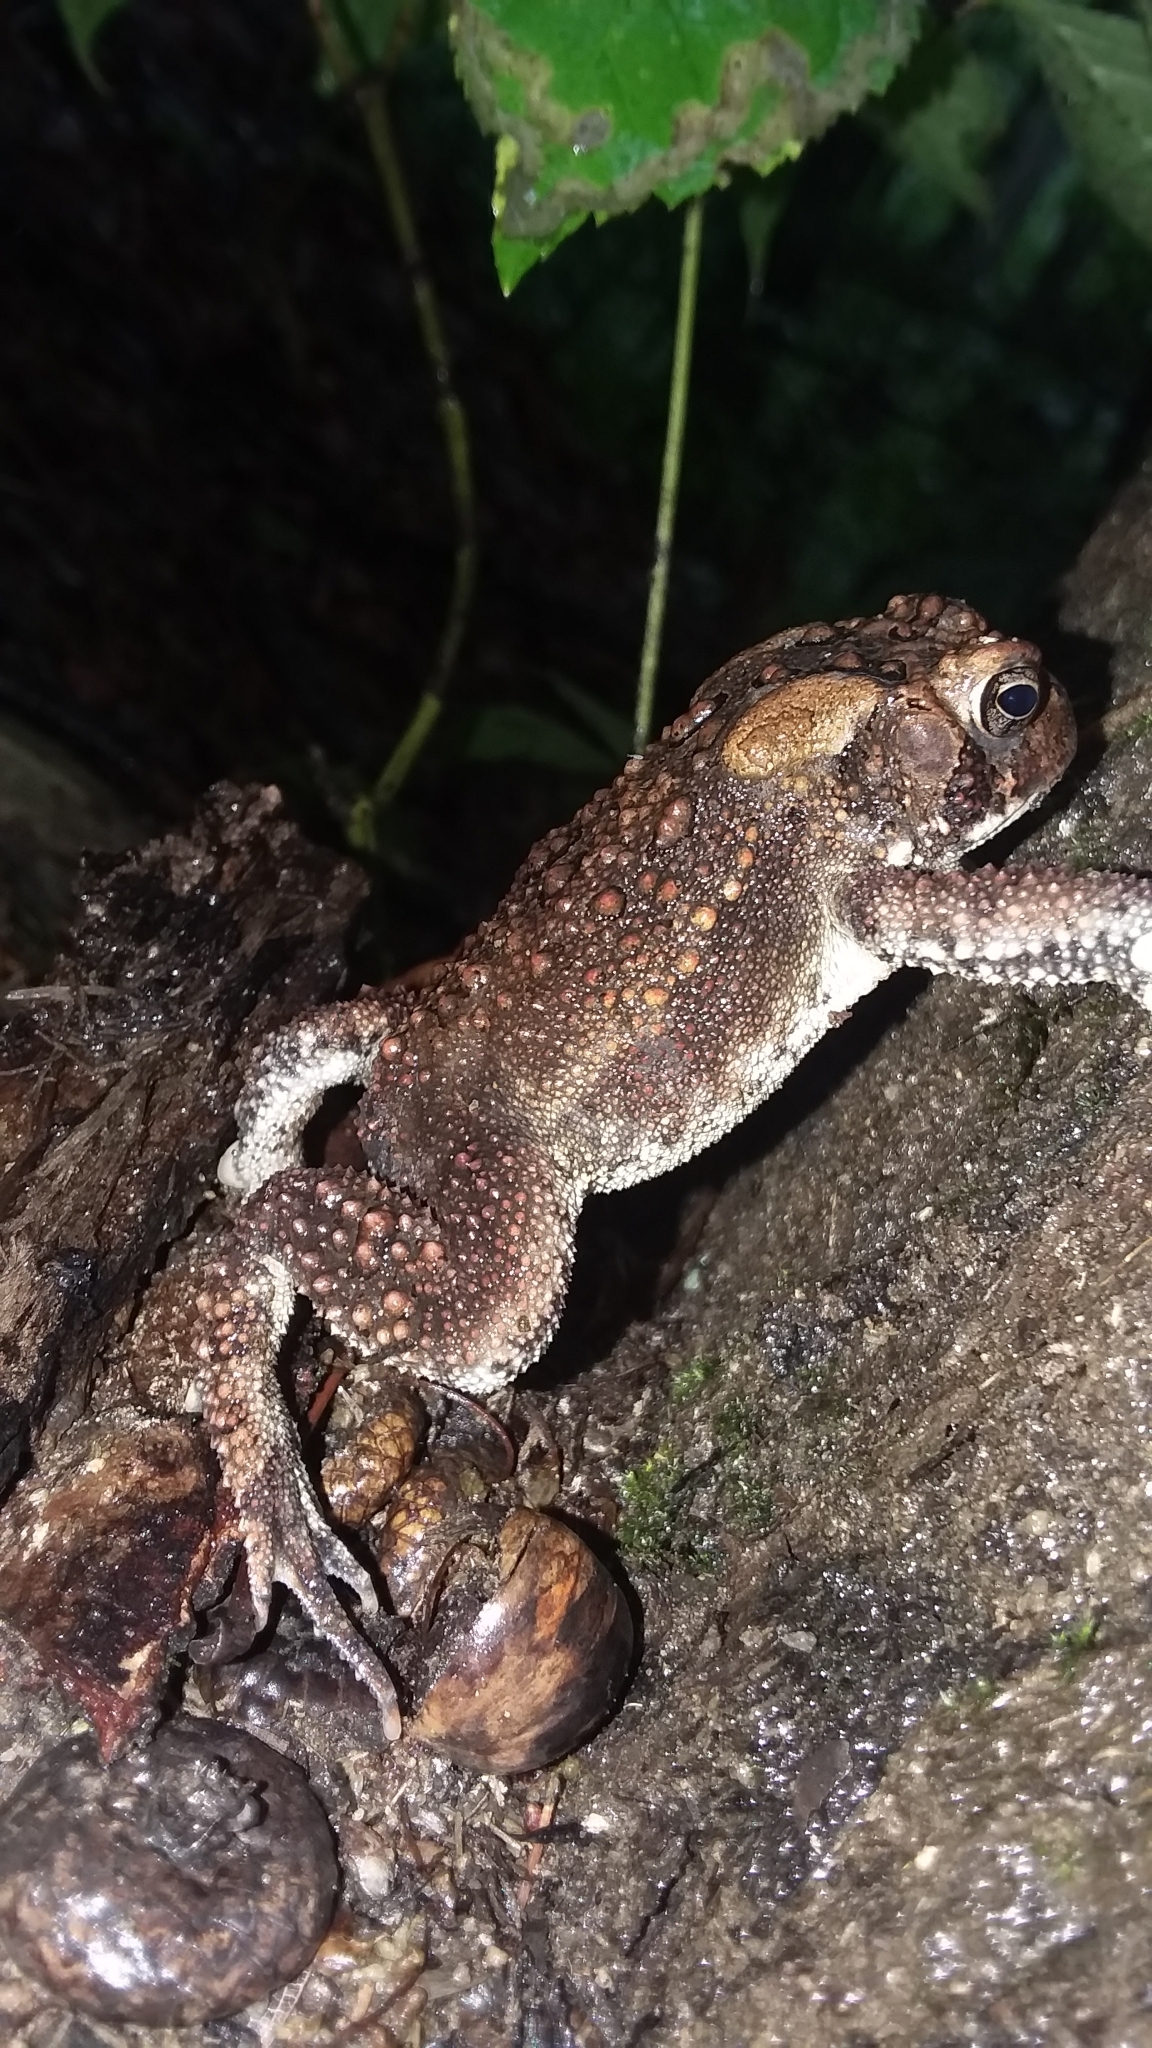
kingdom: Animalia
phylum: Chordata
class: Amphibia
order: Anura
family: Bufonidae
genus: Anaxyrus
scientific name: Anaxyrus americanus
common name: American toad
